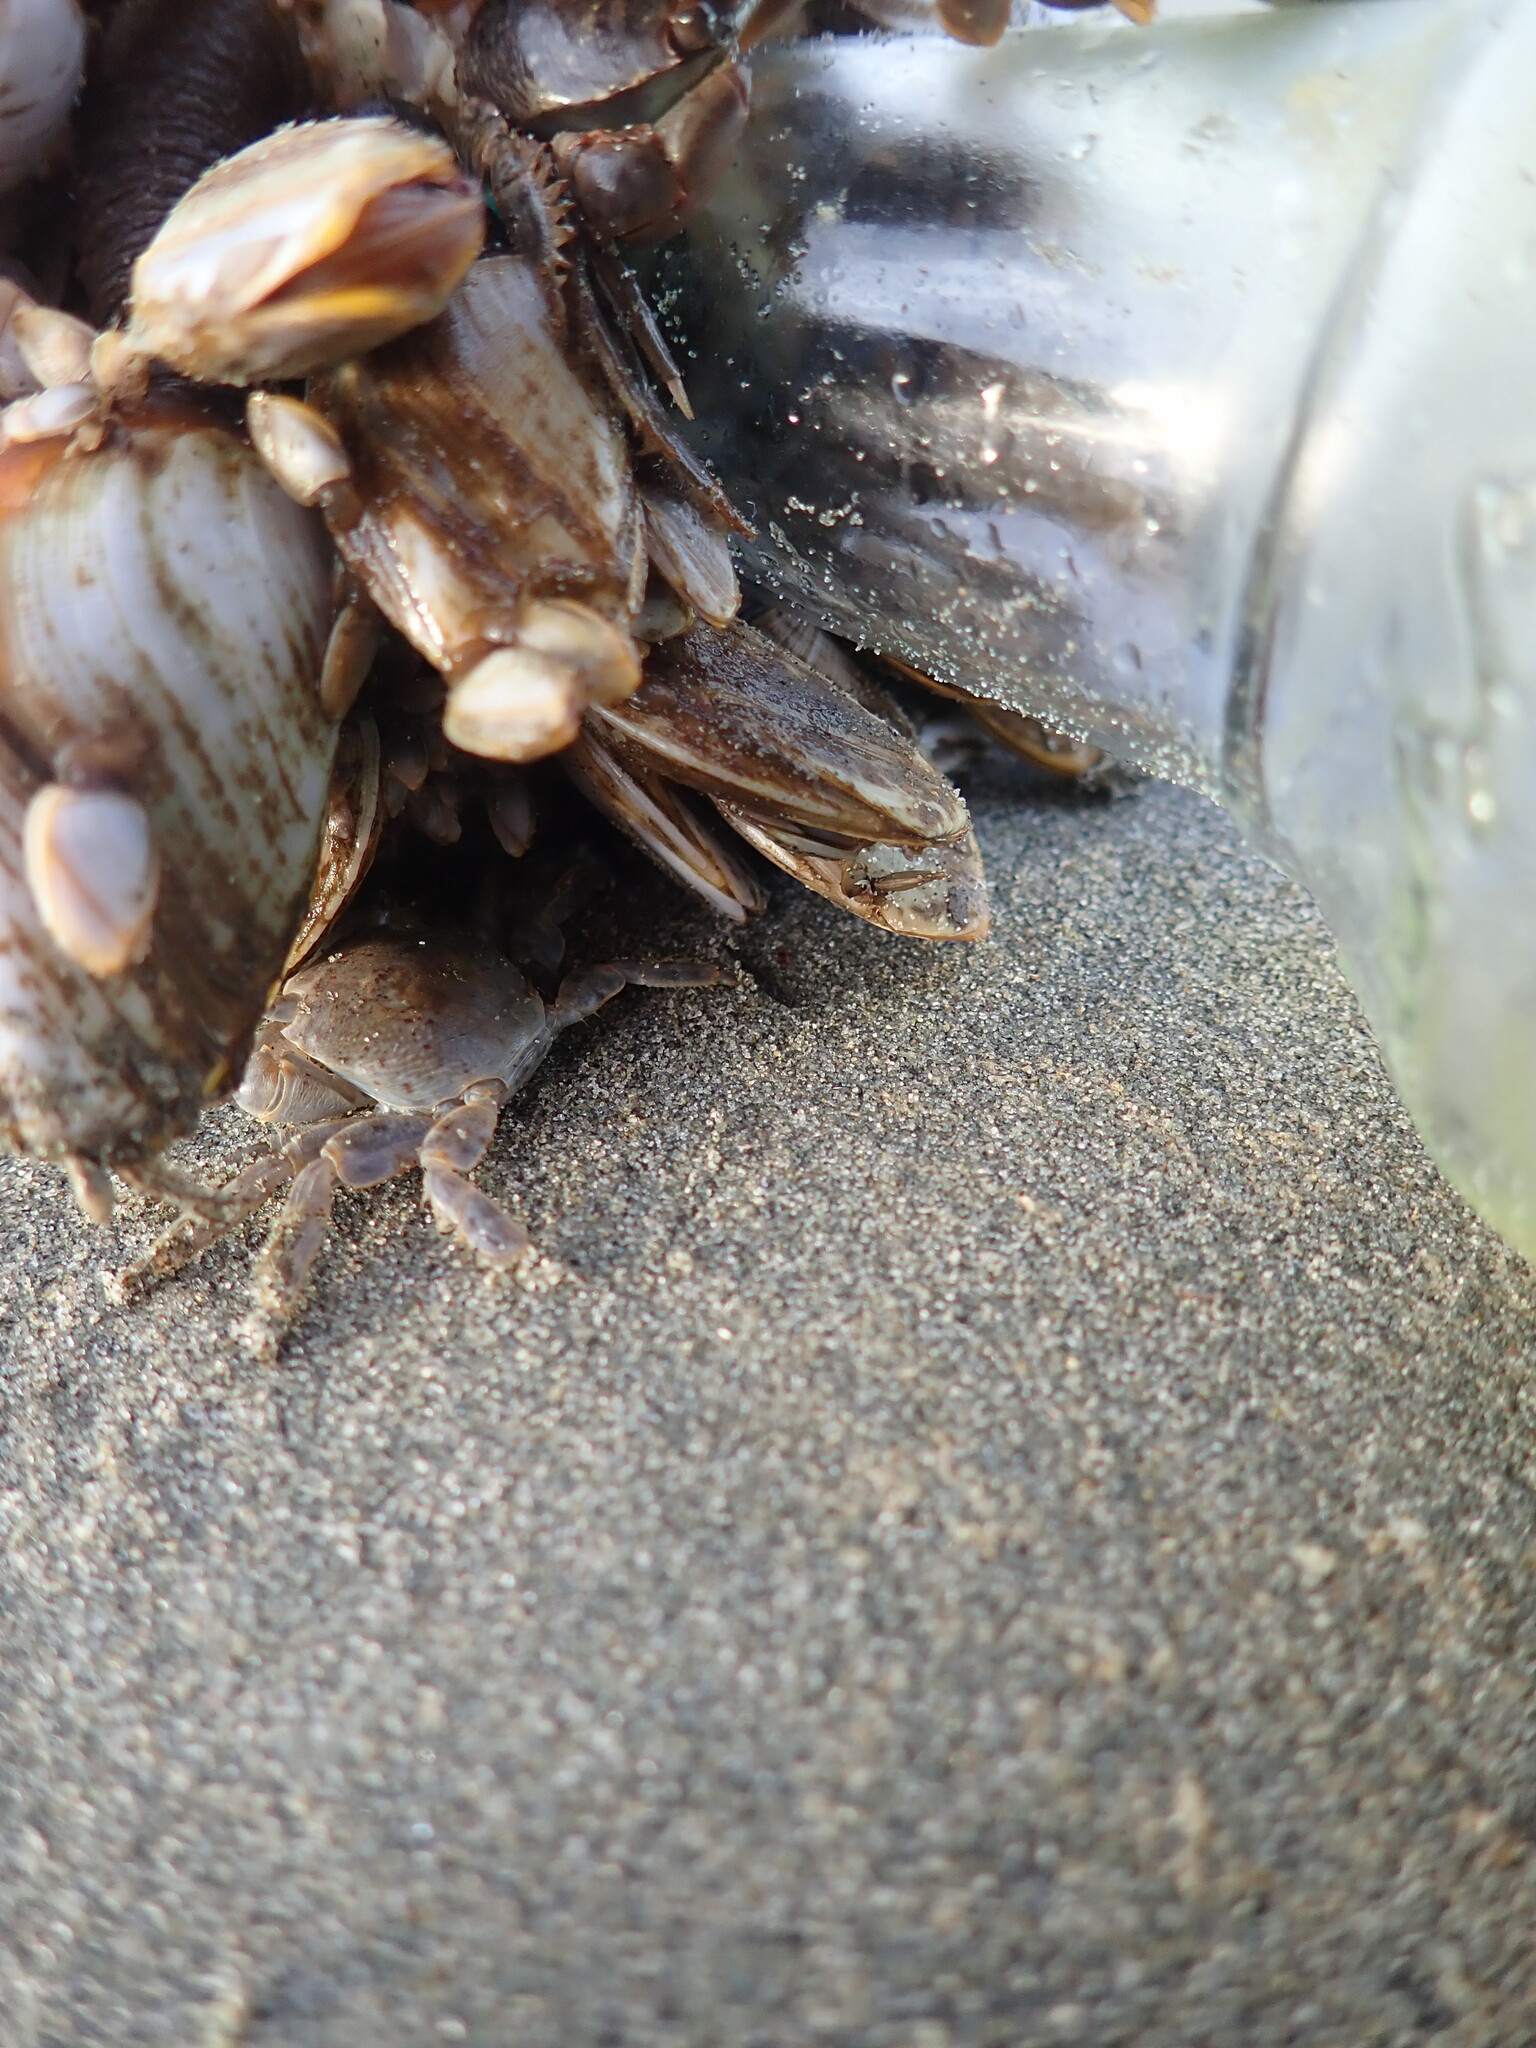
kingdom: Animalia
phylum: Arthropoda
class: Maxillopoda
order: Pedunculata
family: Lepadidae
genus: Lepas
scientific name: Lepas anatifera
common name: Common goose barnacle
